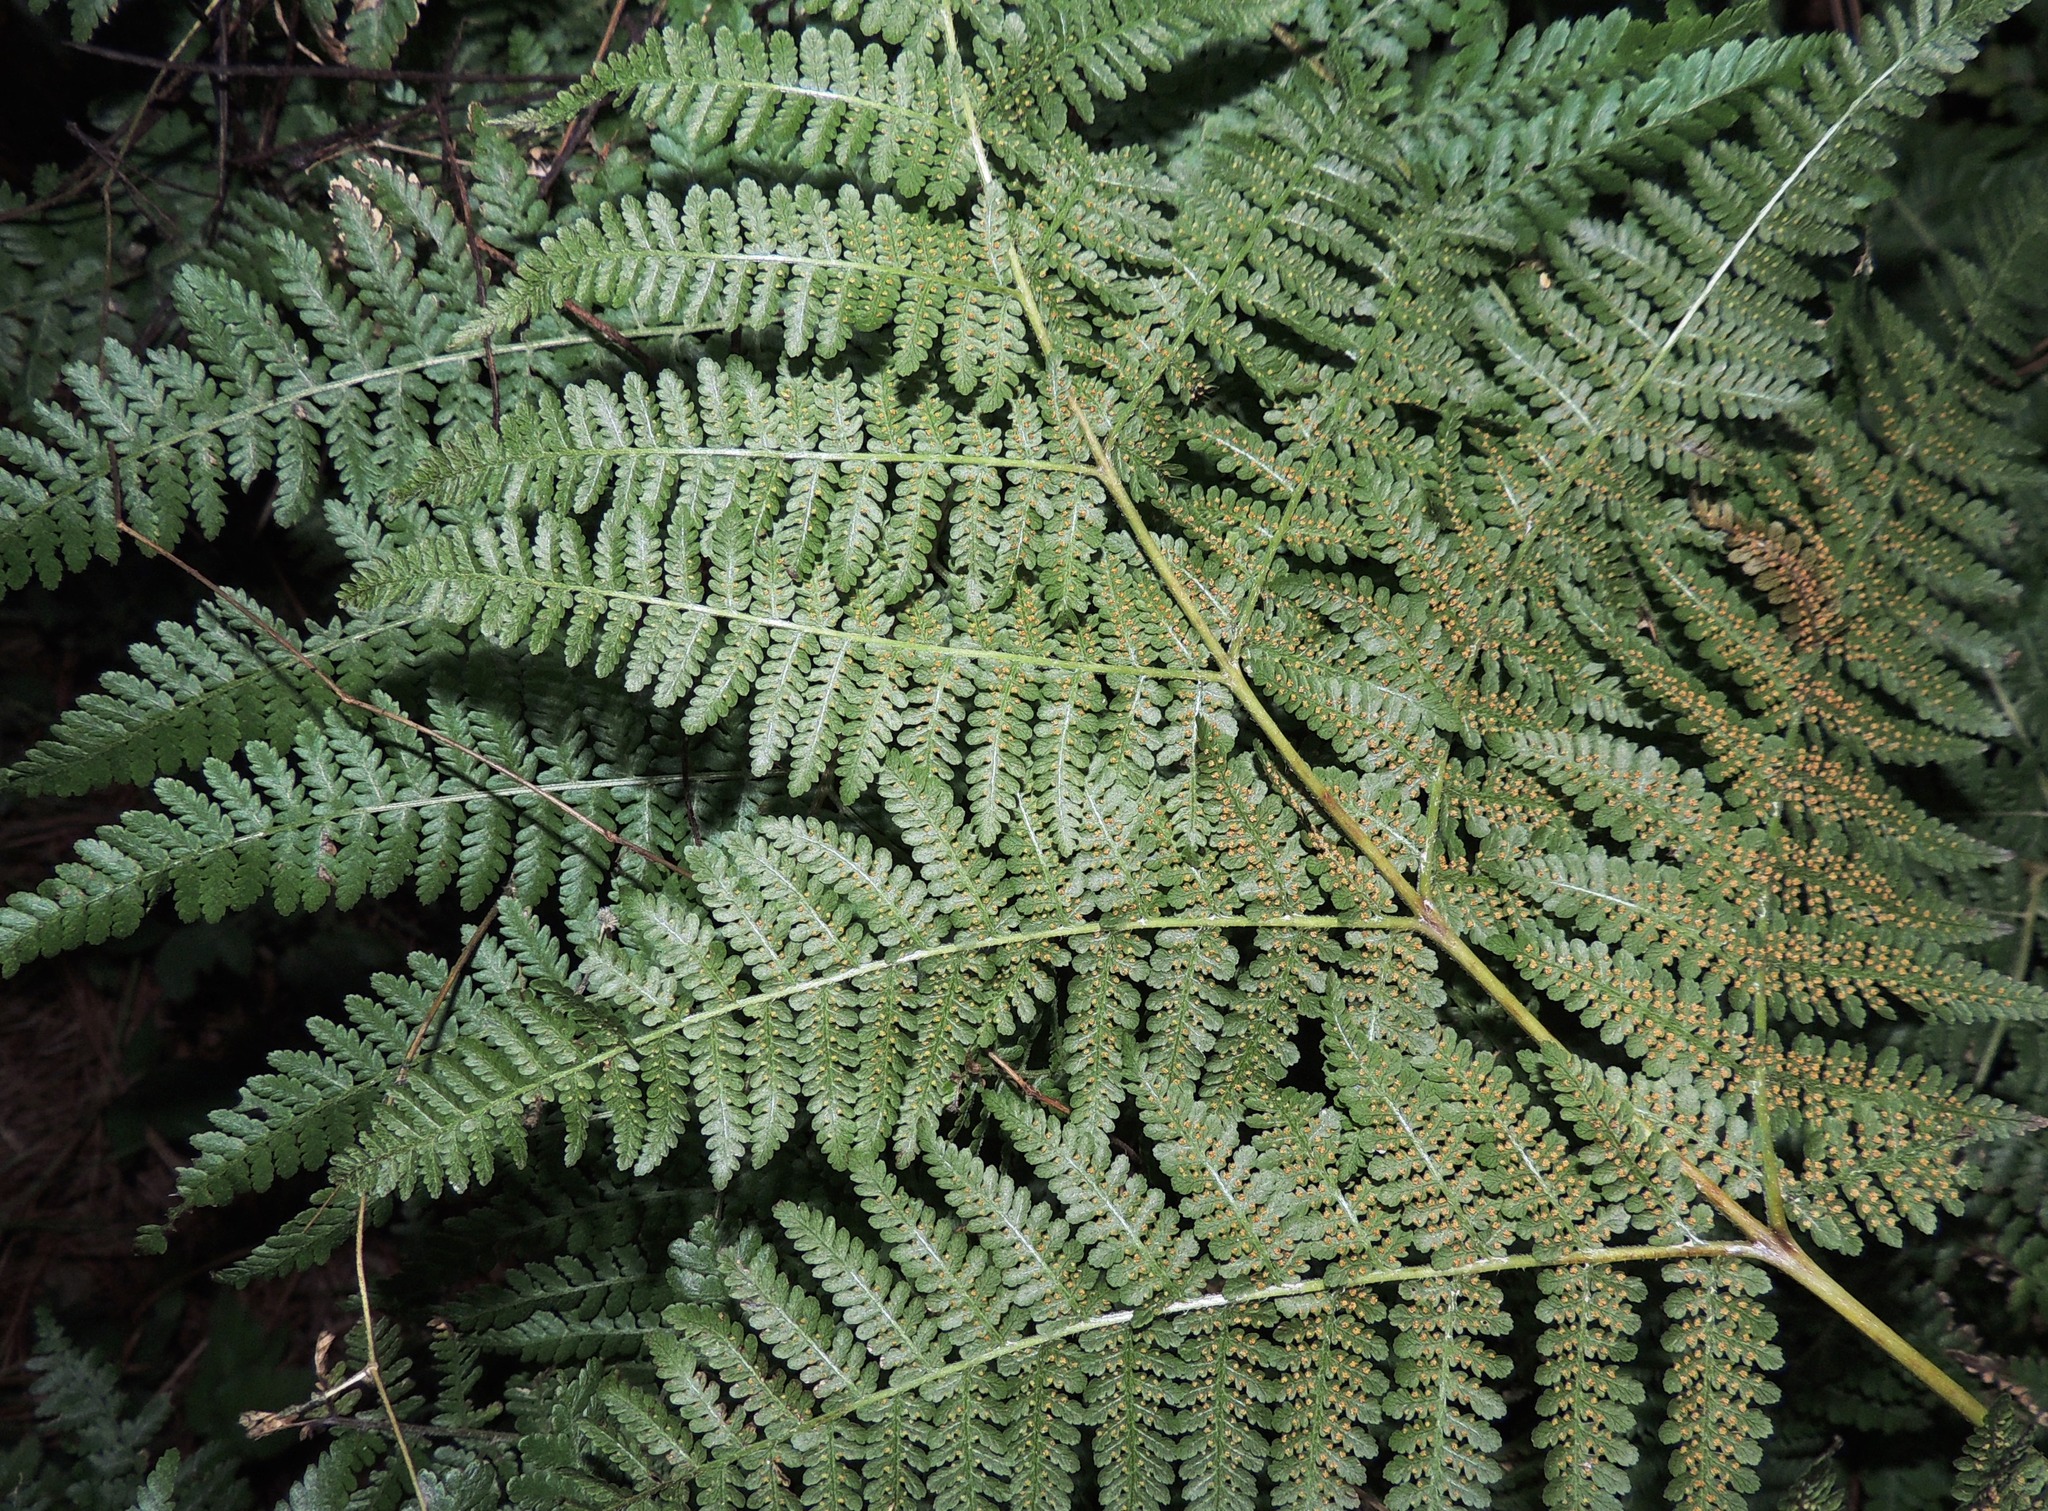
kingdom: Plantae
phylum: Tracheophyta
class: Polypodiopsida
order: Polypodiales
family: Dennstaedtiaceae
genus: Hypolepis
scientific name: Hypolepis ambigua
